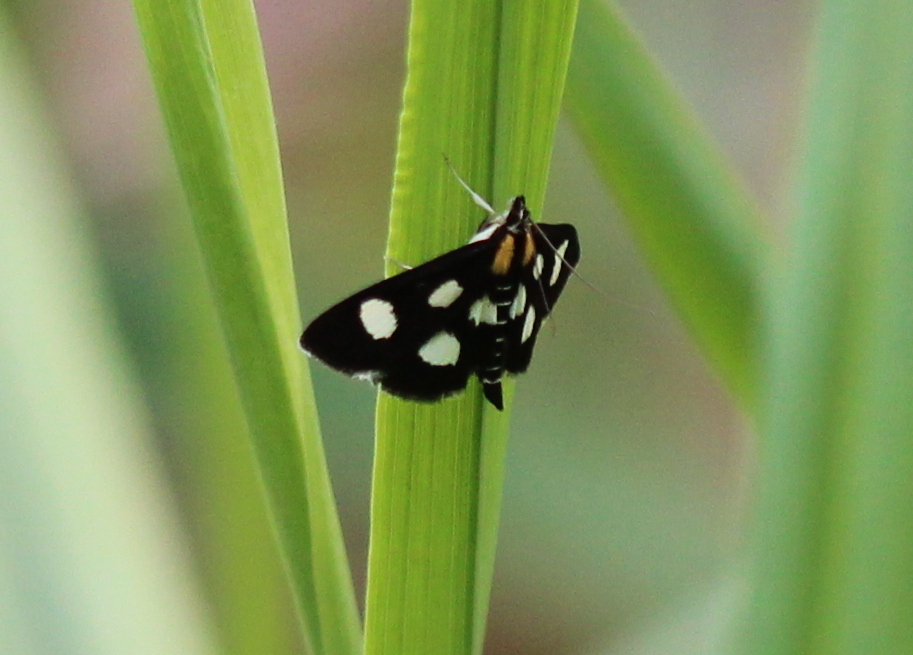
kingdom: Animalia
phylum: Arthropoda
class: Insecta
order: Lepidoptera
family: Crambidae
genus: Anania
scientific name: Anania funebris
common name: White-spotted sable moth
